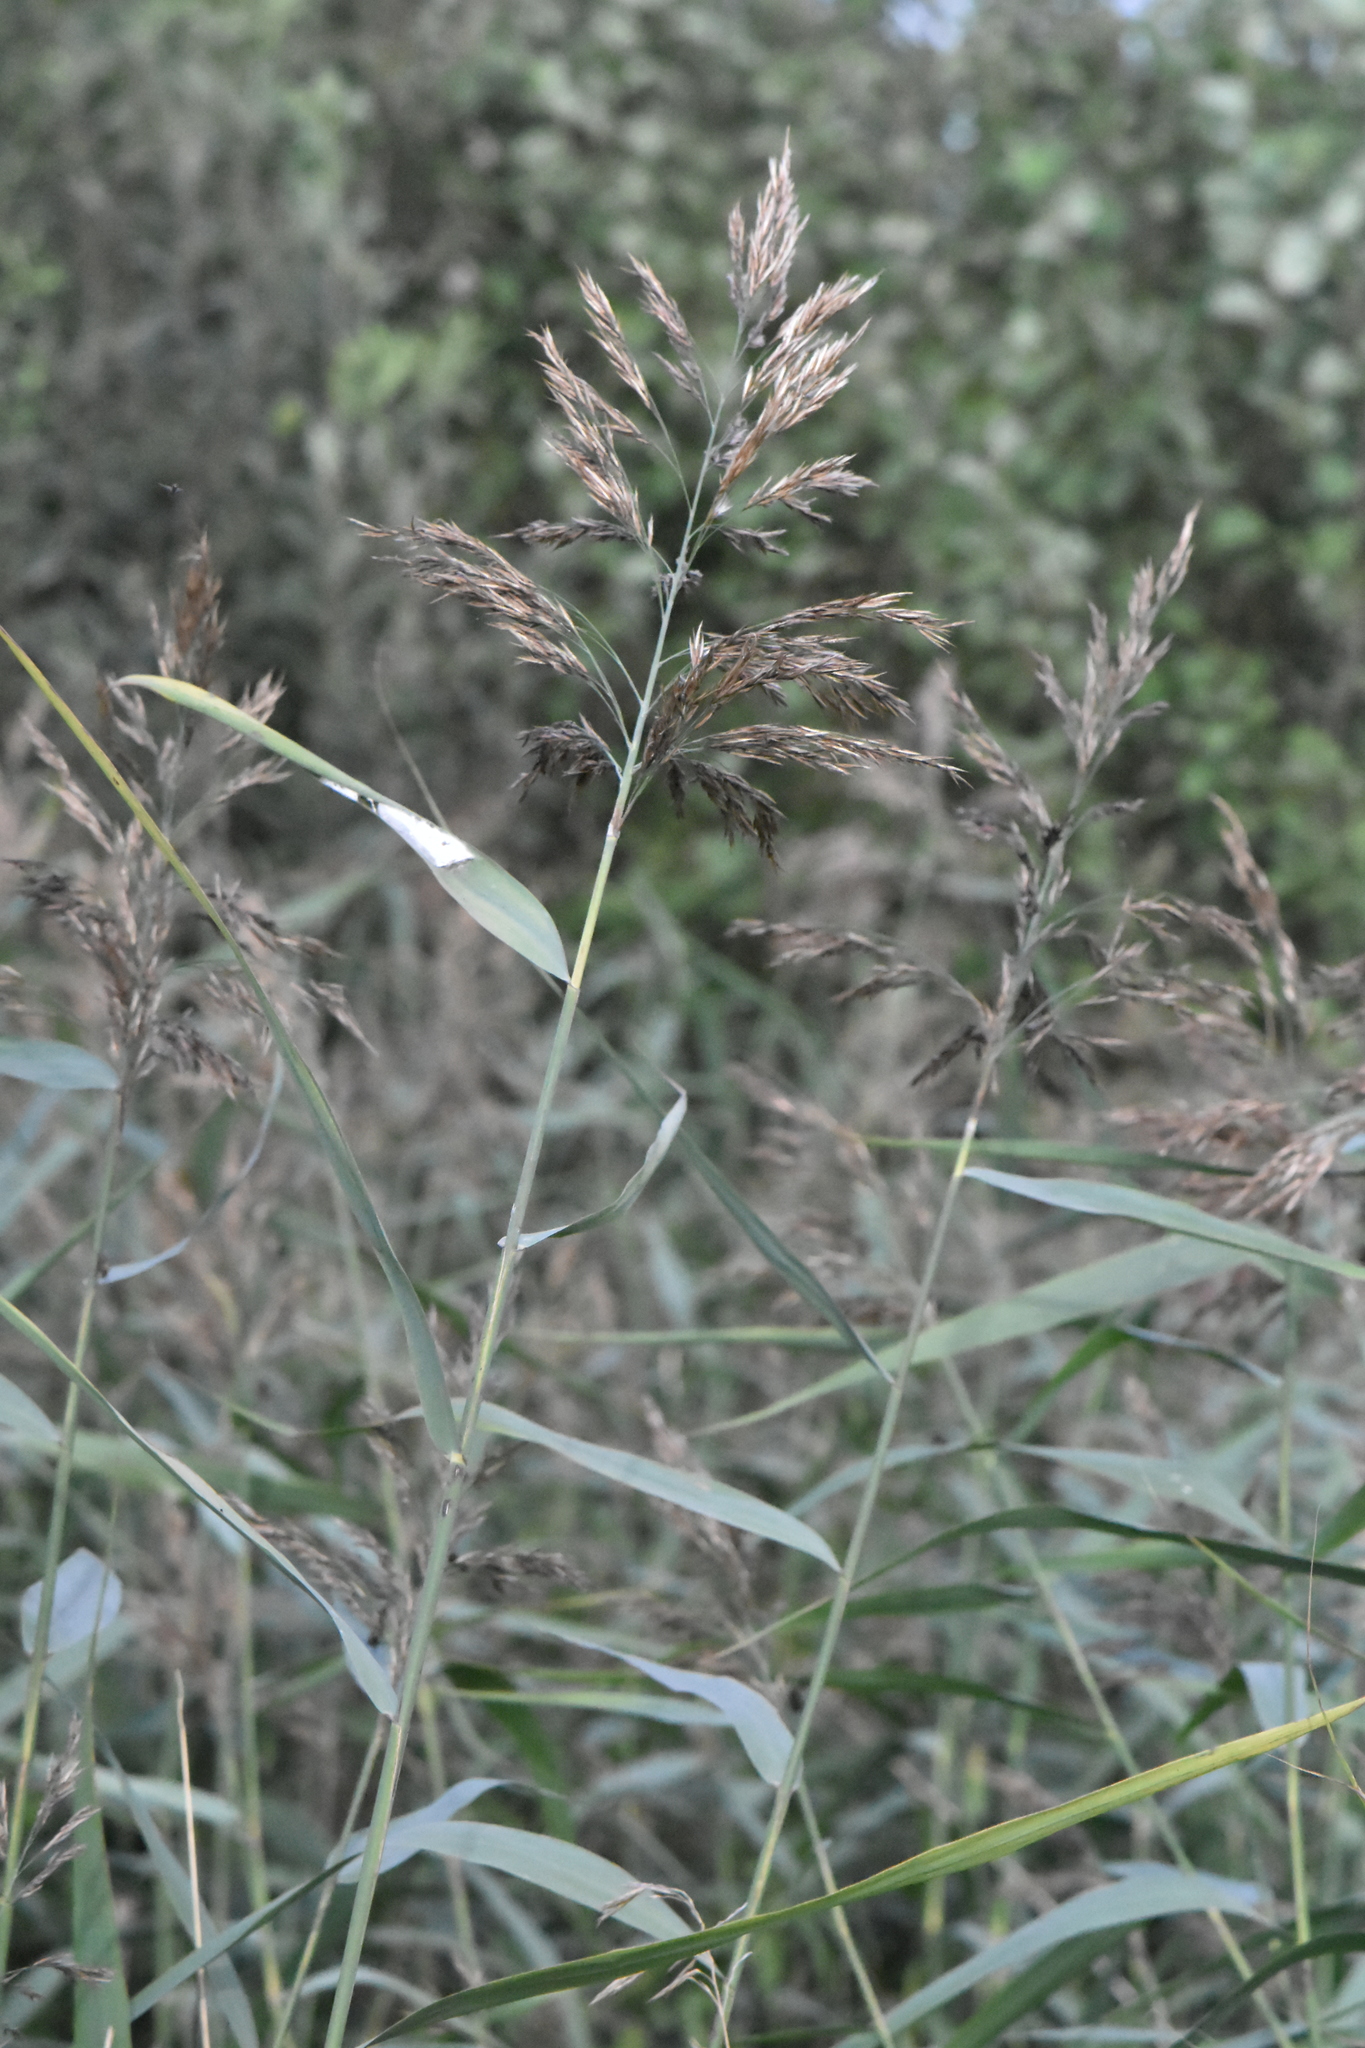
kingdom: Plantae
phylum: Tracheophyta
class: Liliopsida
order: Poales
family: Poaceae
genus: Phragmites
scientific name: Phragmites australis
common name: Common reed
